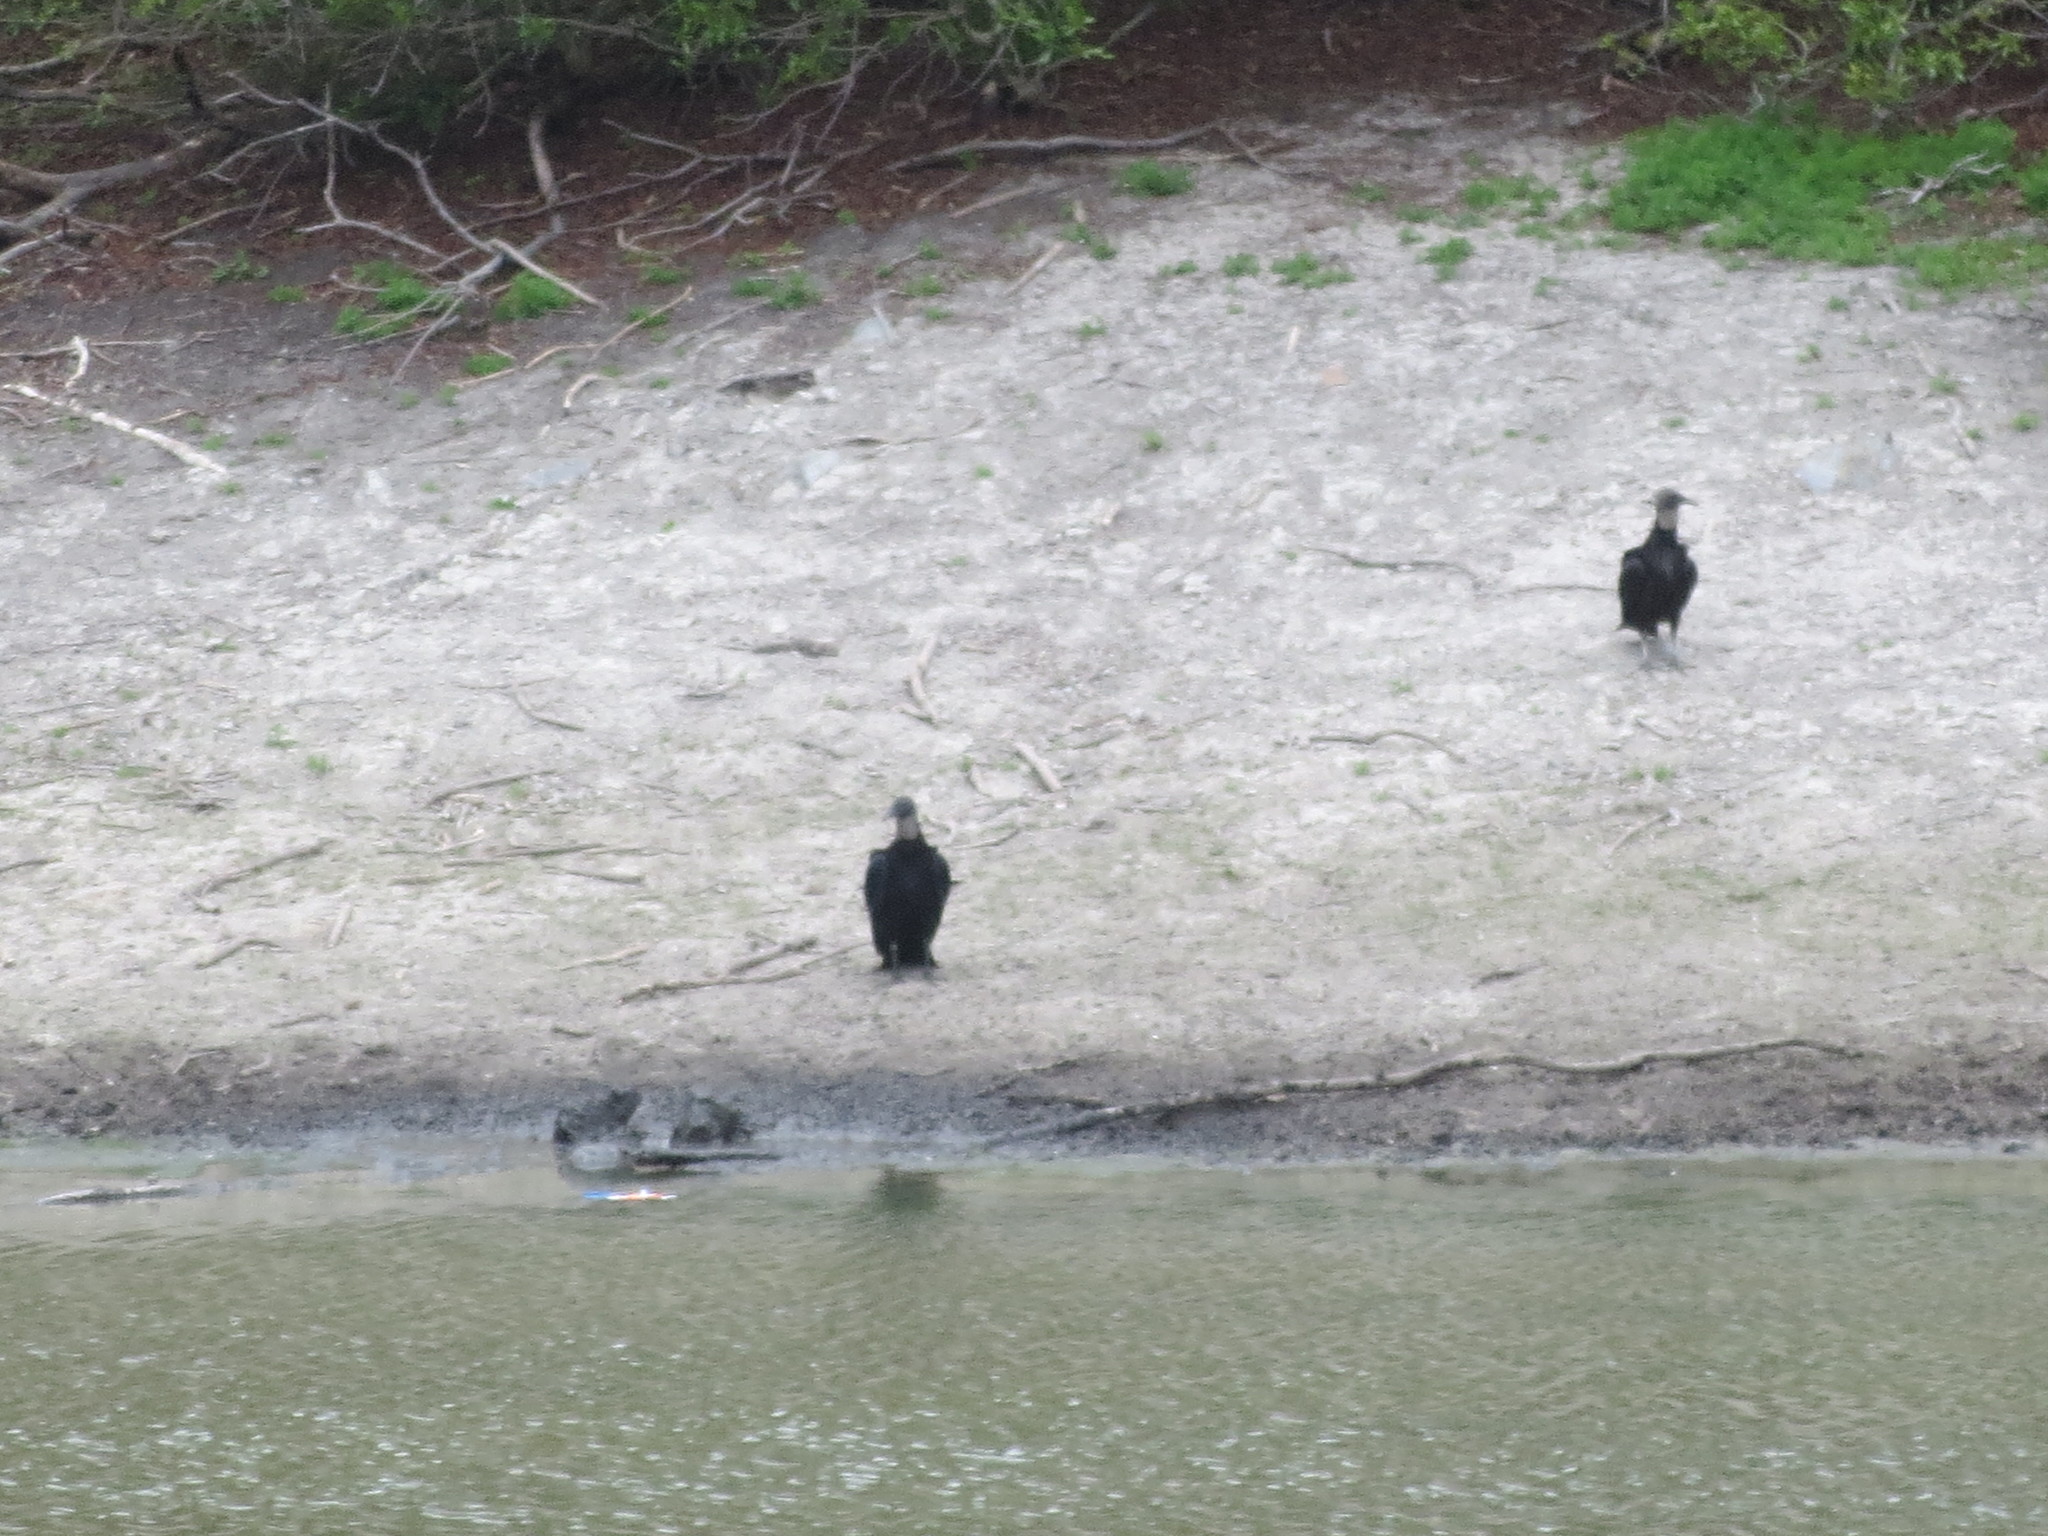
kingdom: Animalia
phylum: Chordata
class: Aves
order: Accipitriformes
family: Cathartidae
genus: Coragyps
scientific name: Coragyps atratus
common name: Black vulture
